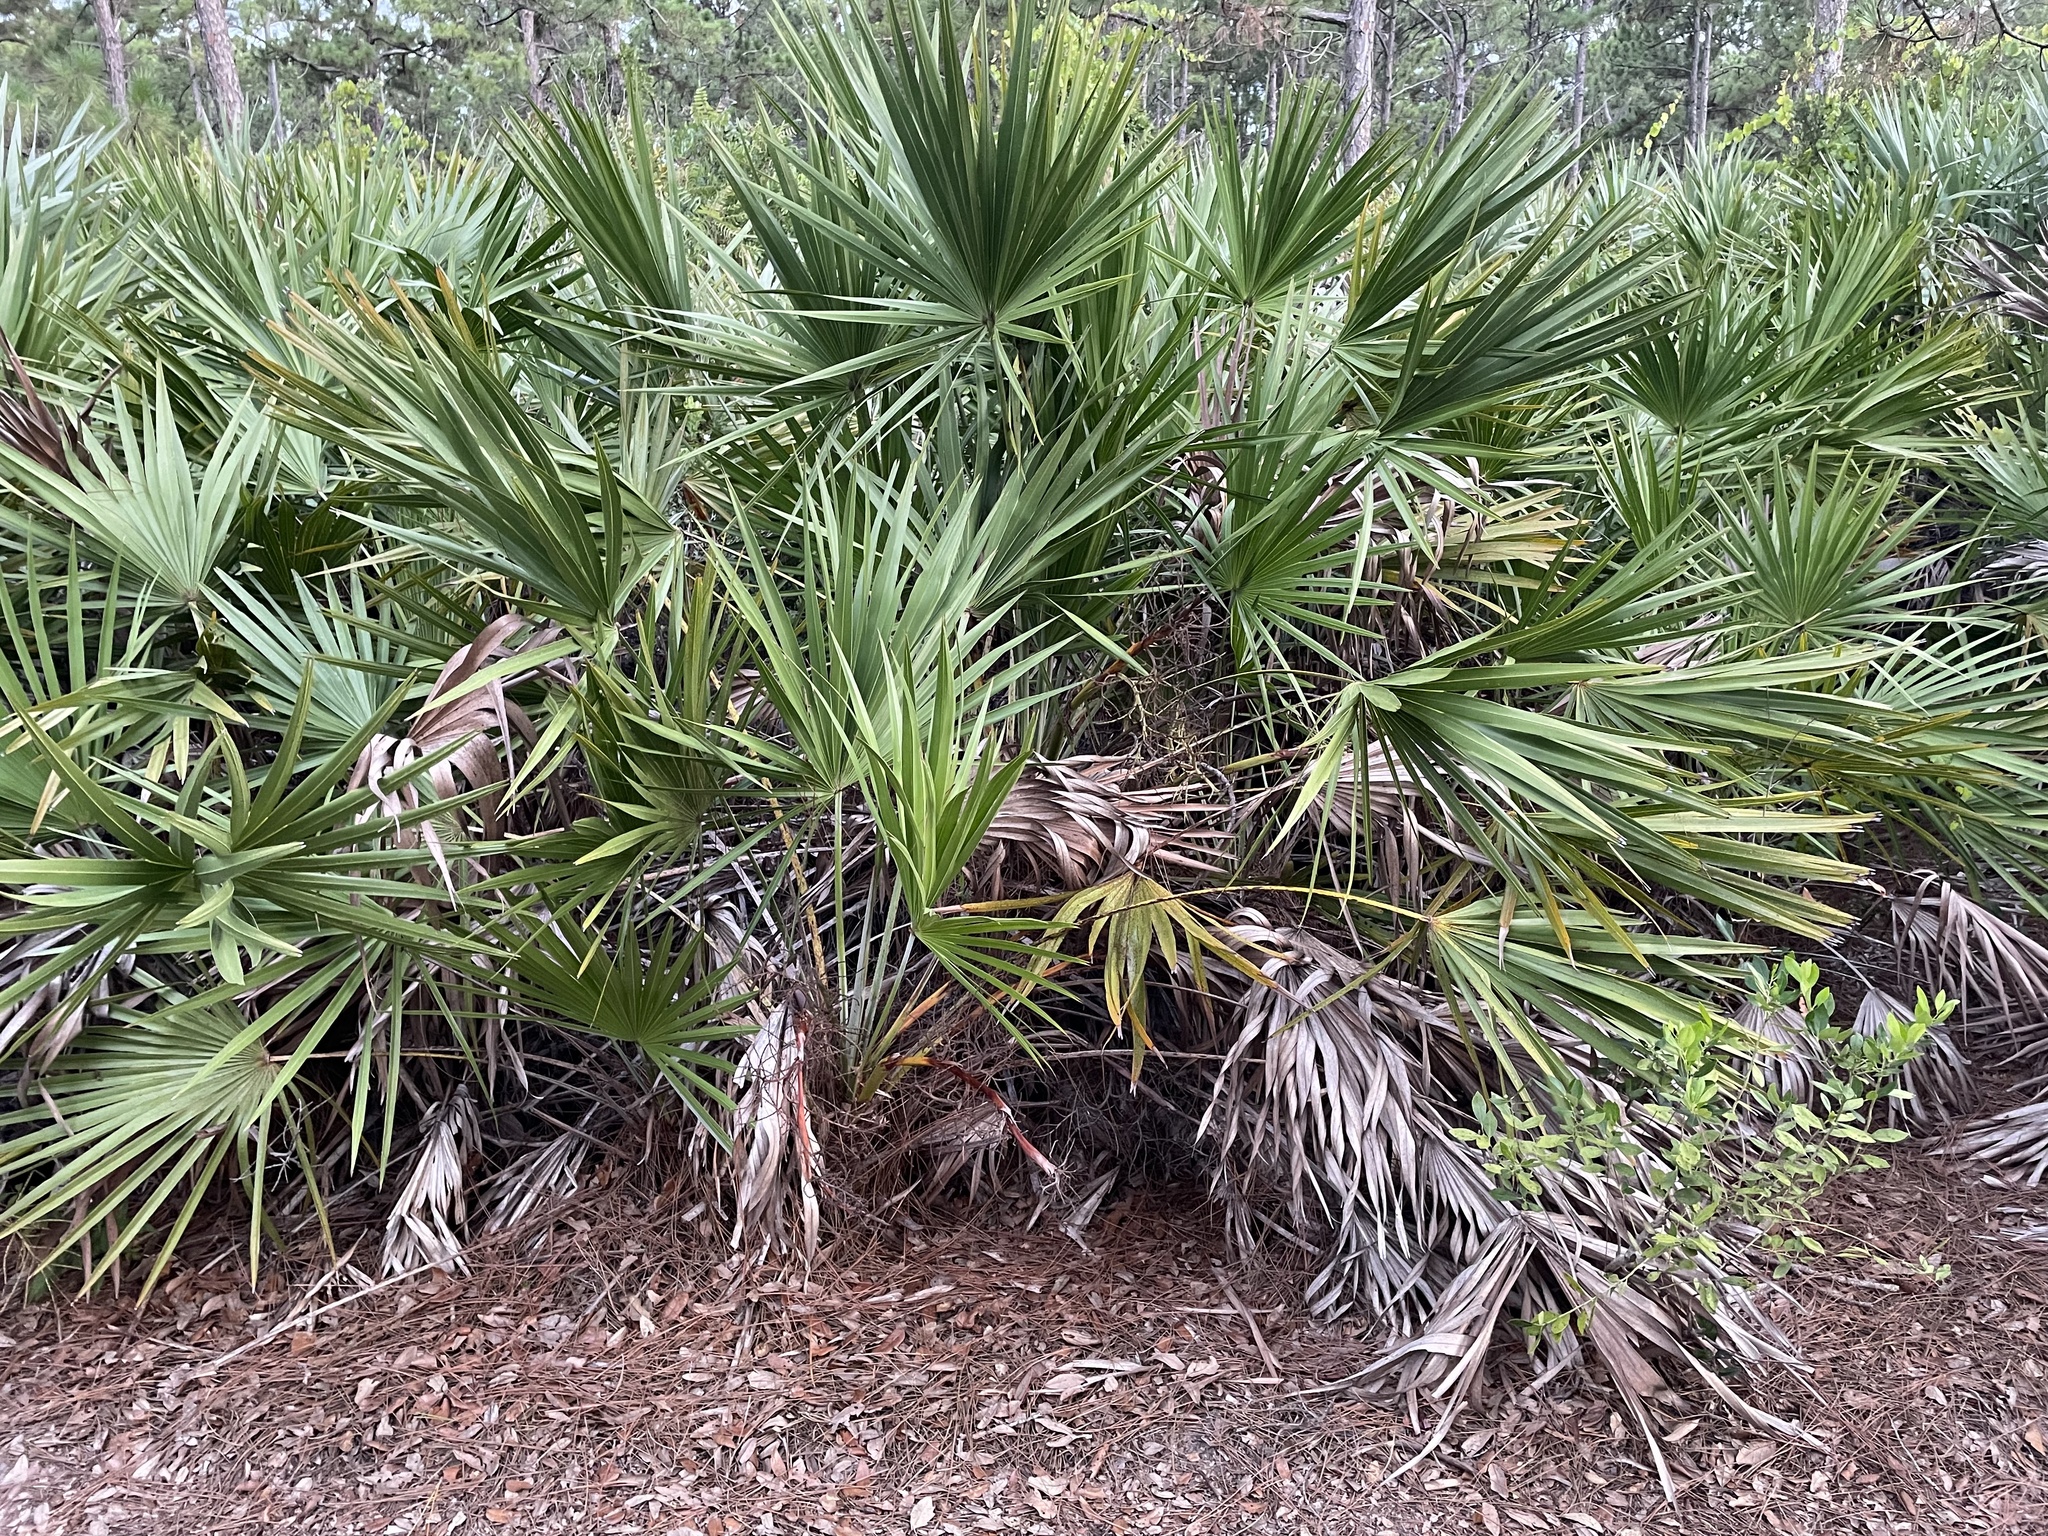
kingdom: Plantae
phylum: Tracheophyta
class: Liliopsida
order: Arecales
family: Arecaceae
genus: Serenoa
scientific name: Serenoa repens
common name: Saw-palmetto
